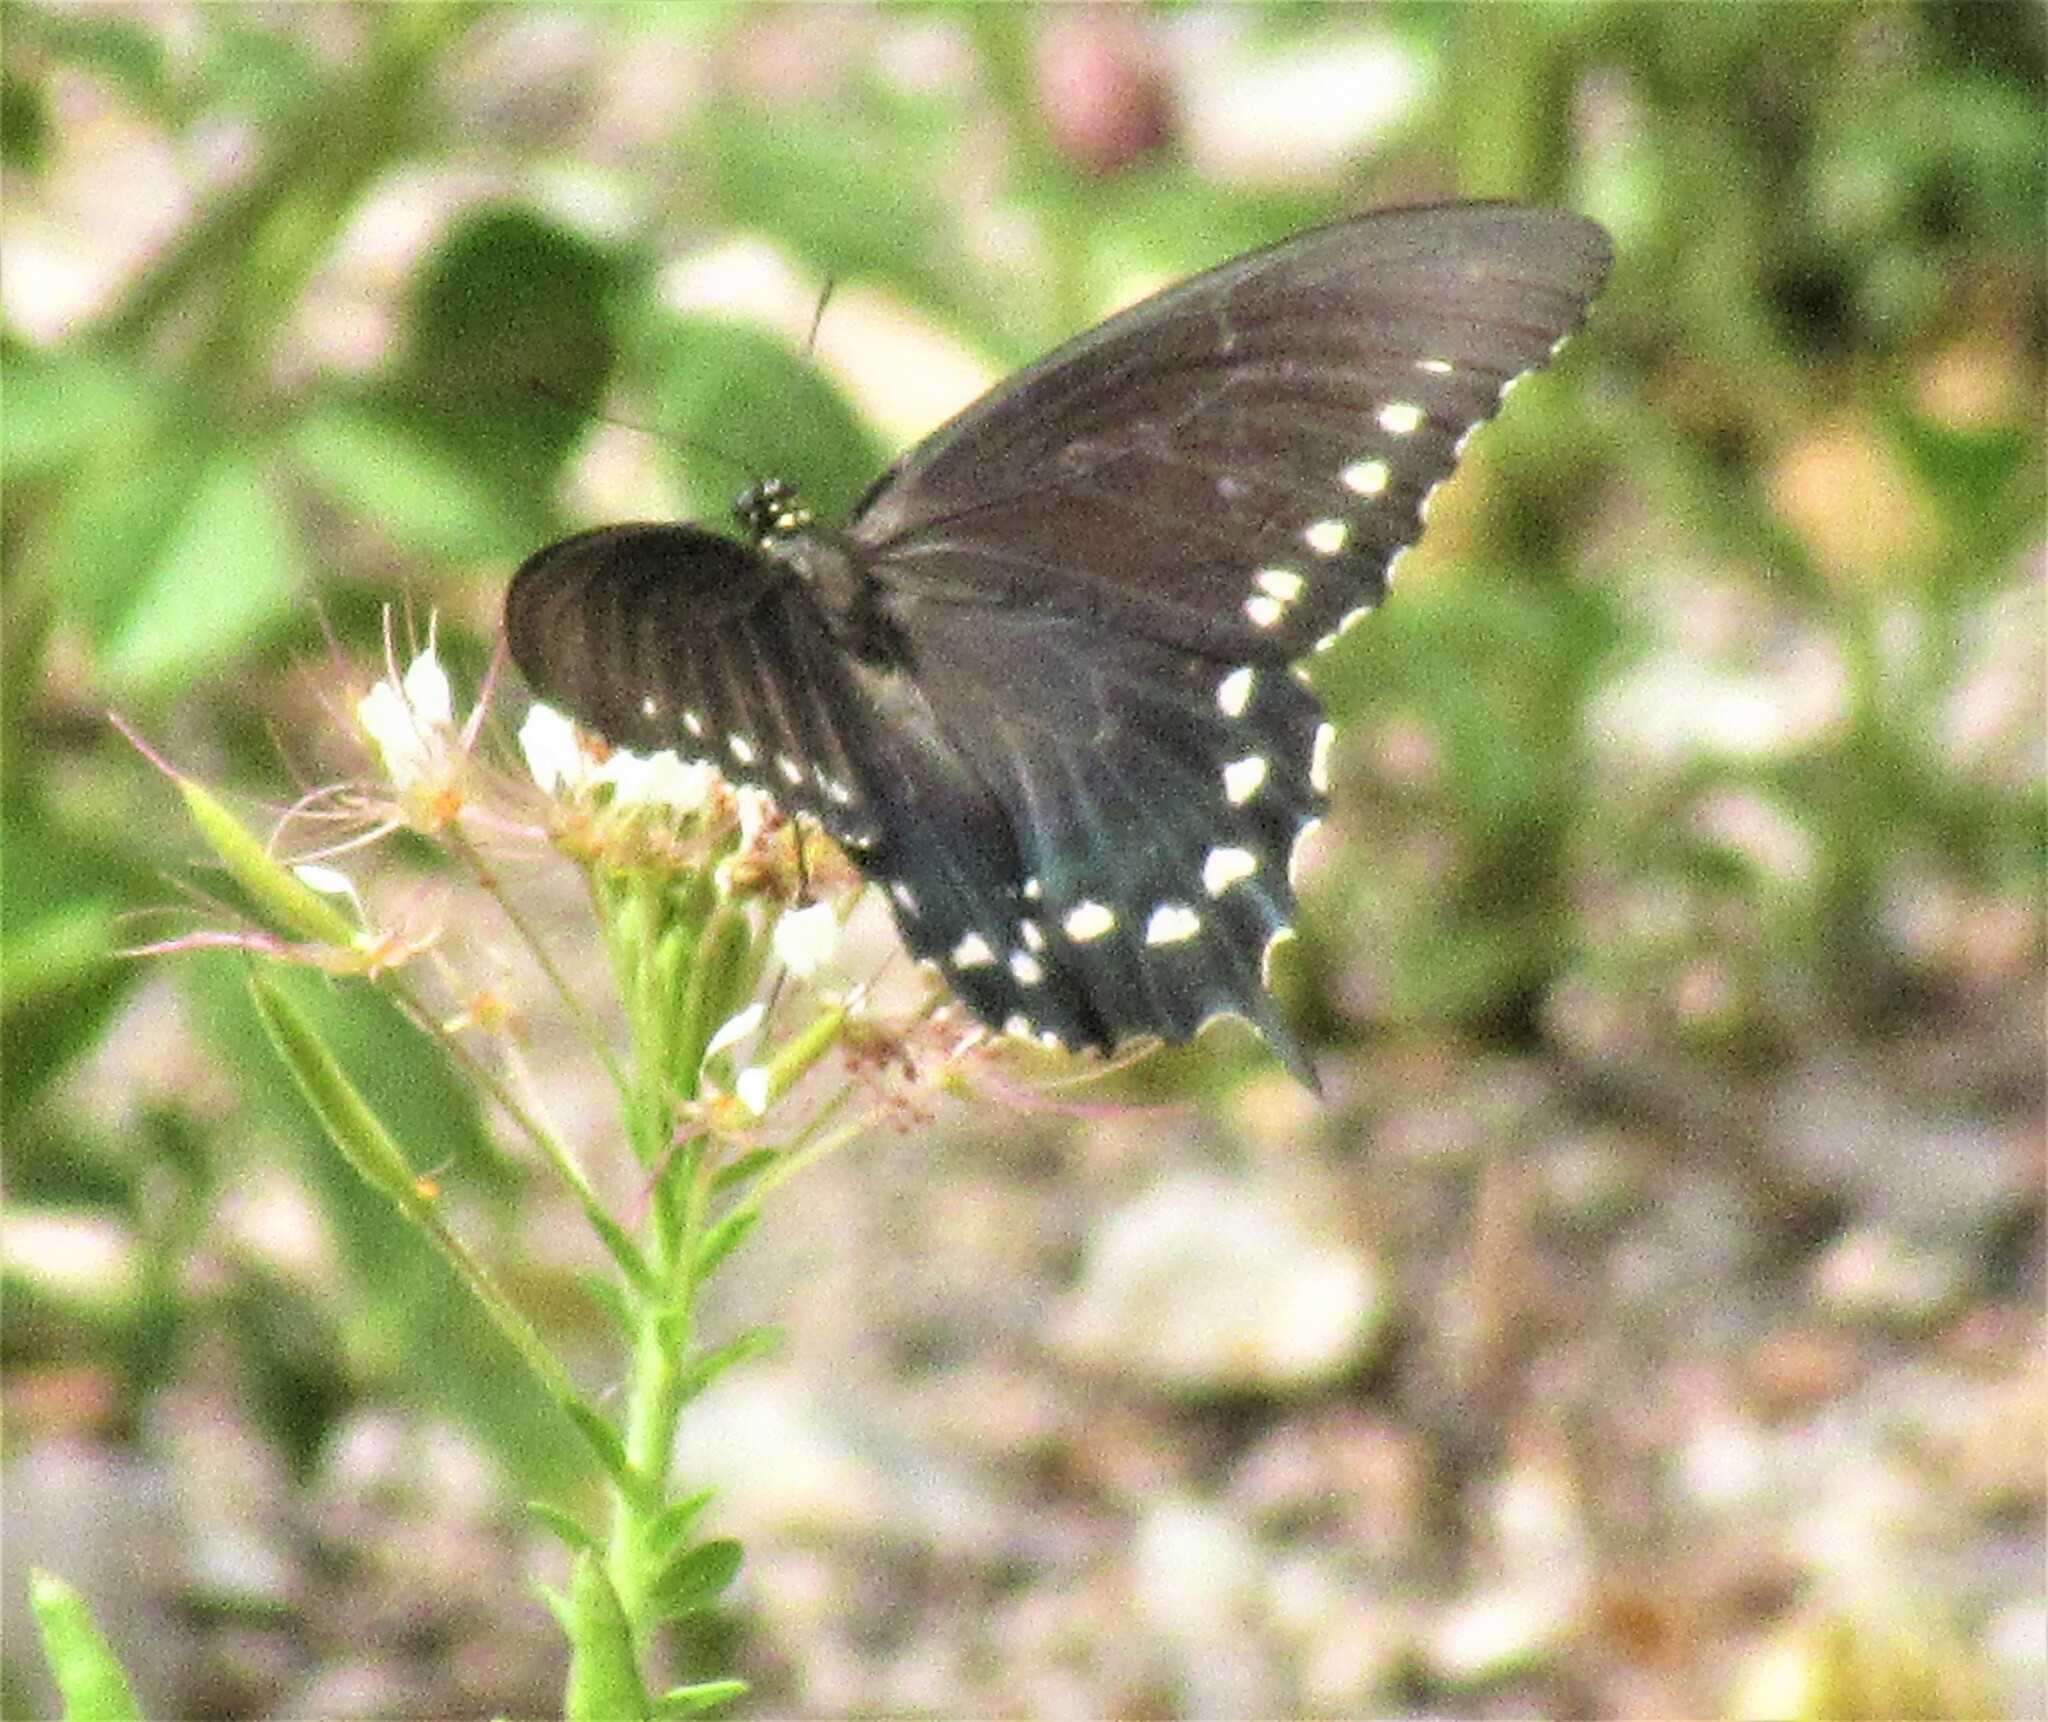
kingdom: Animalia
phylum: Arthropoda
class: Insecta
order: Lepidoptera
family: Papilionidae
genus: Battus
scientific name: Battus philenor
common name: Pipevine swallowtail
